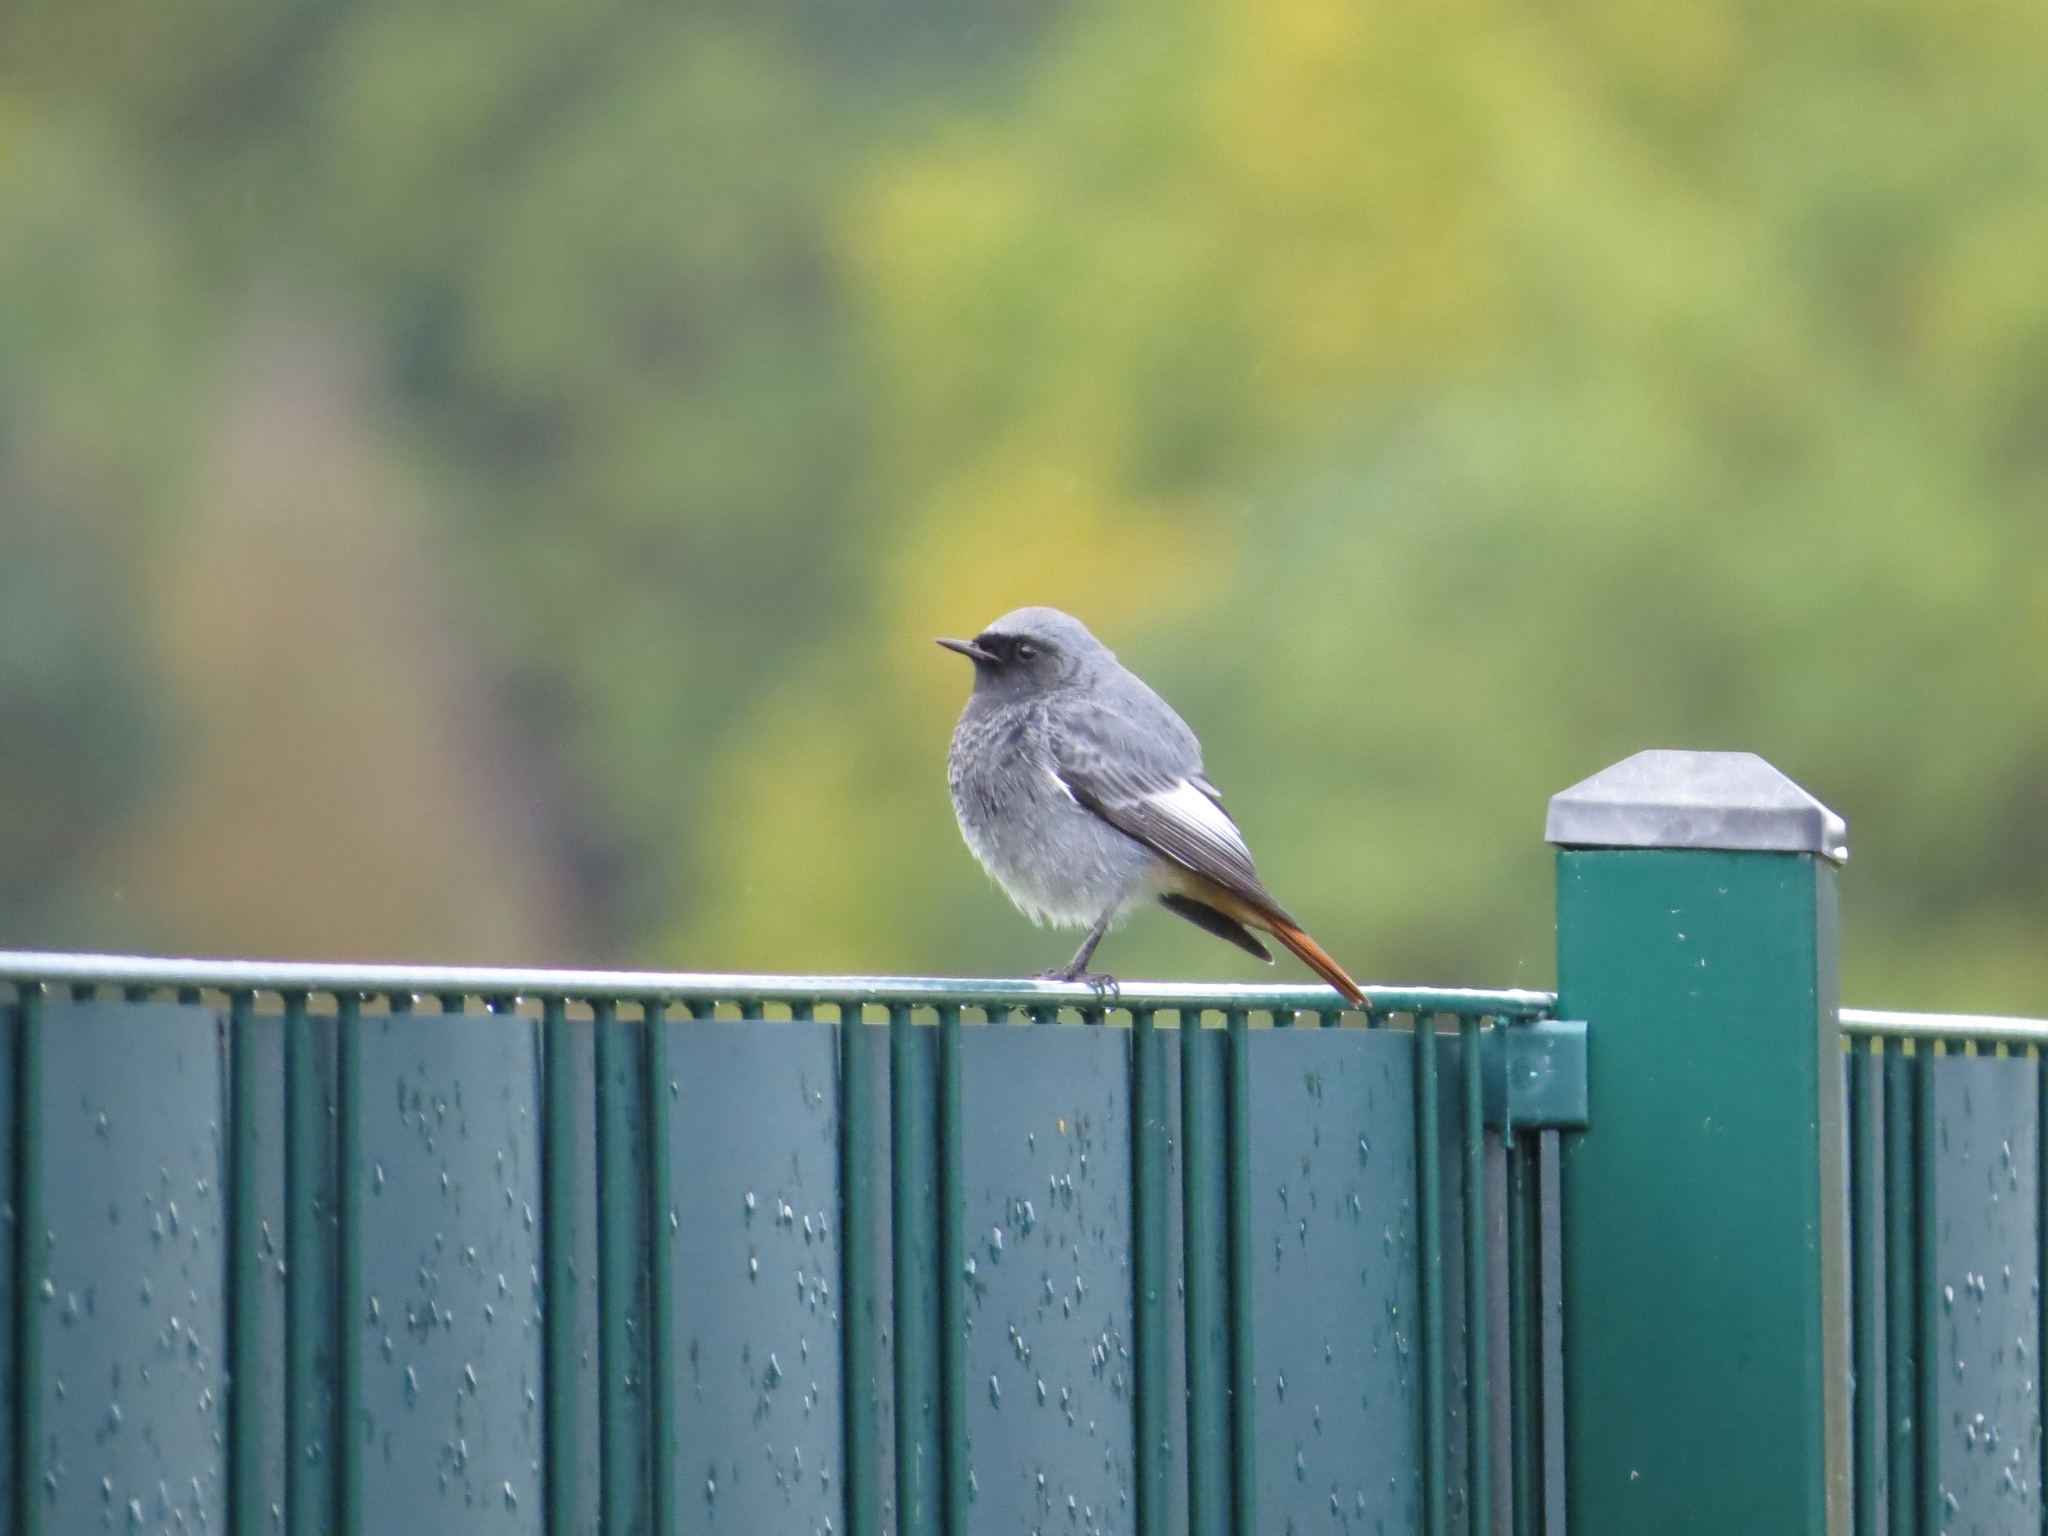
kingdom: Animalia
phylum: Chordata
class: Aves
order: Passeriformes
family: Muscicapidae
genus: Phoenicurus
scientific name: Phoenicurus ochruros
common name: Black redstart
